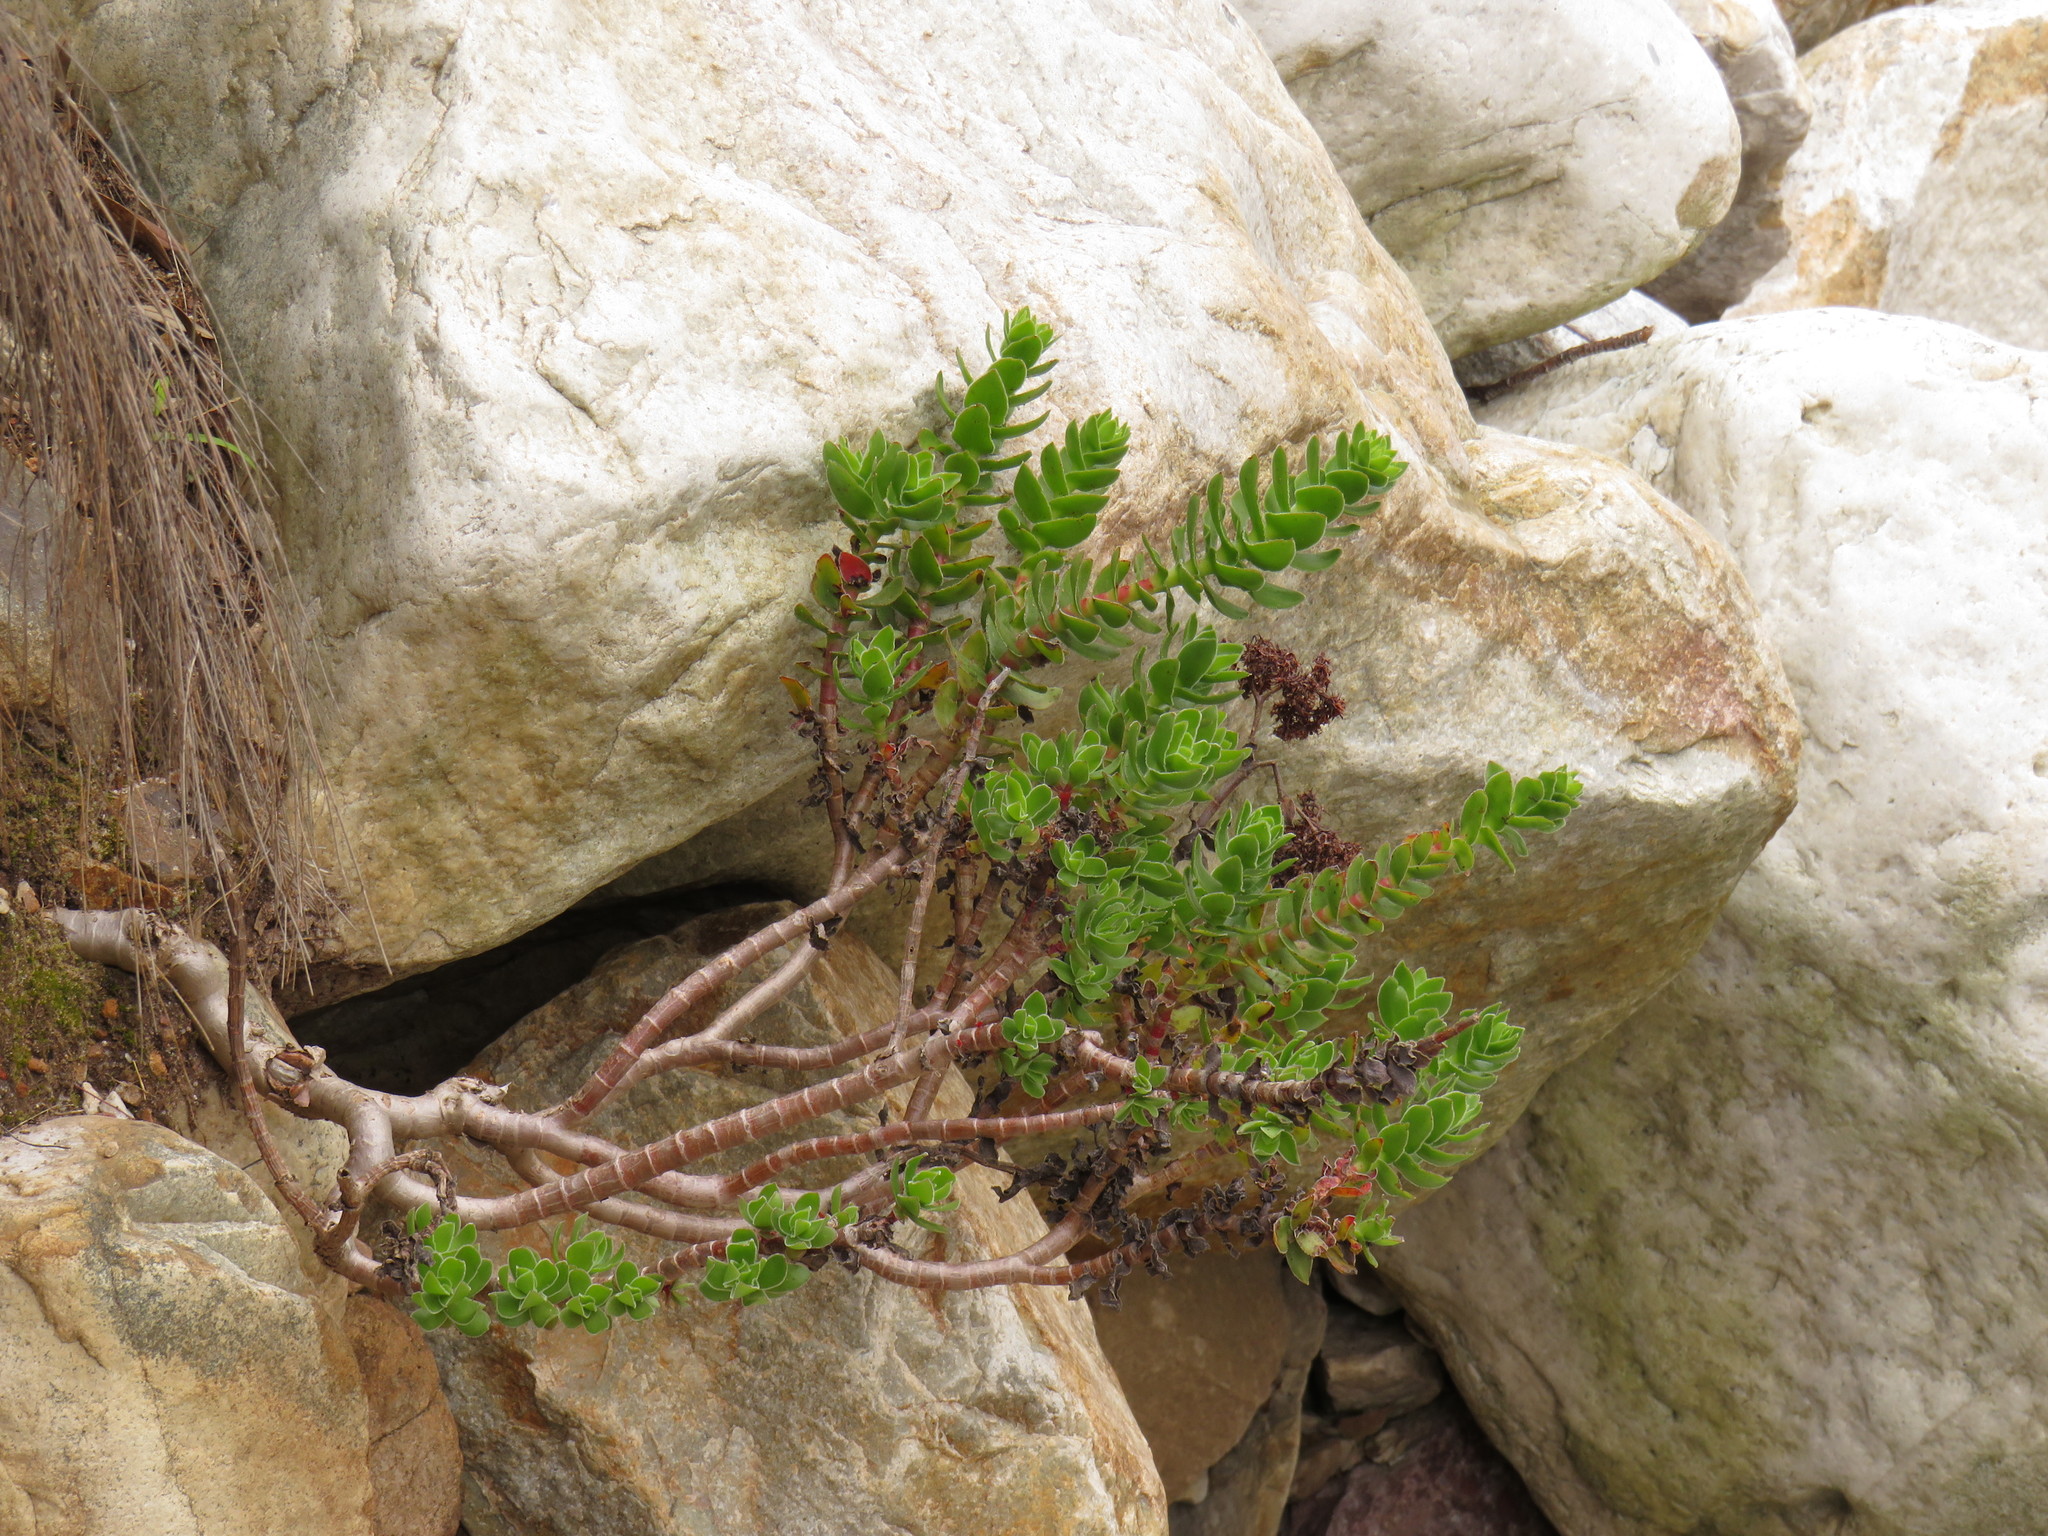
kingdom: Plantae
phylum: Tracheophyta
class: Magnoliopsida
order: Saxifragales
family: Crassulaceae
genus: Crassula
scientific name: Crassula undulata
